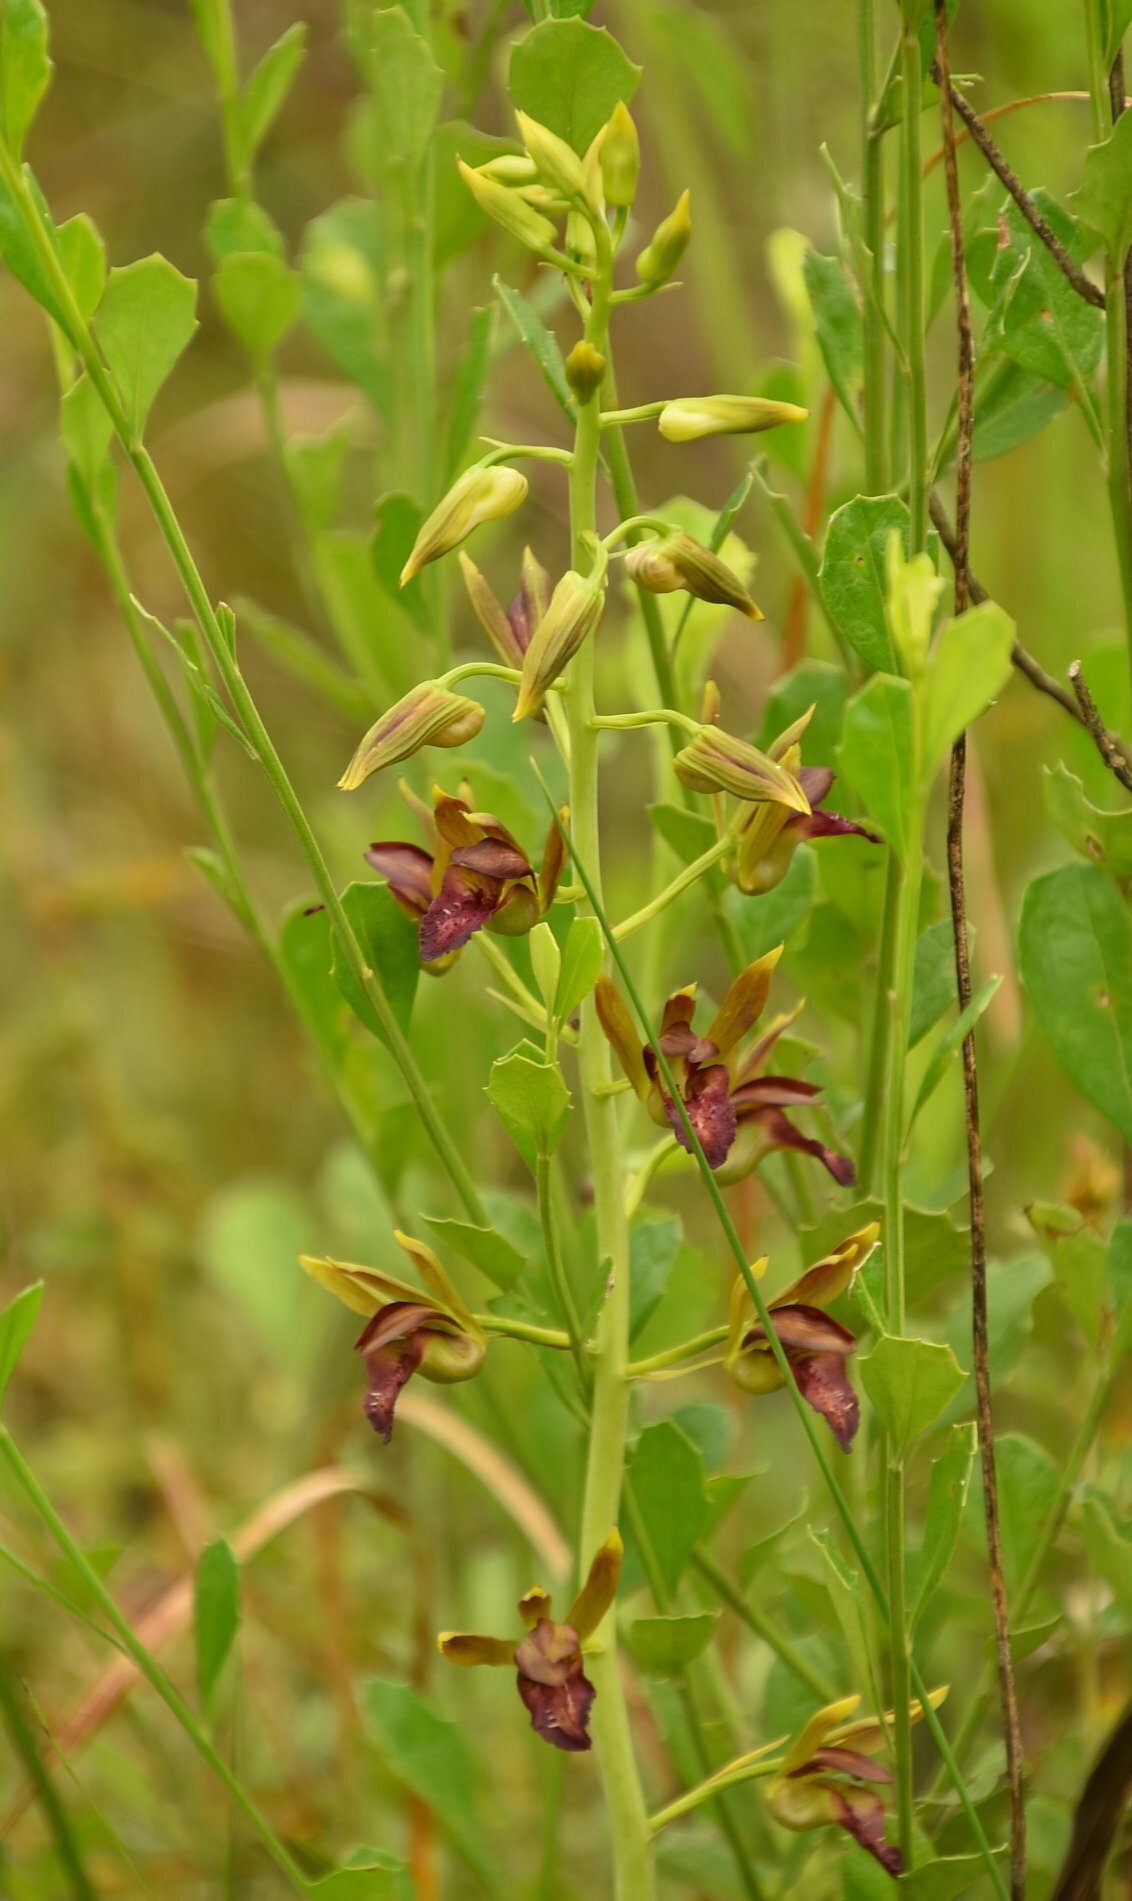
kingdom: Plantae
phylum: Tracheophyta
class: Liliopsida
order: Asparagales
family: Orchidaceae
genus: Eulophia
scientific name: Eulophia alta
